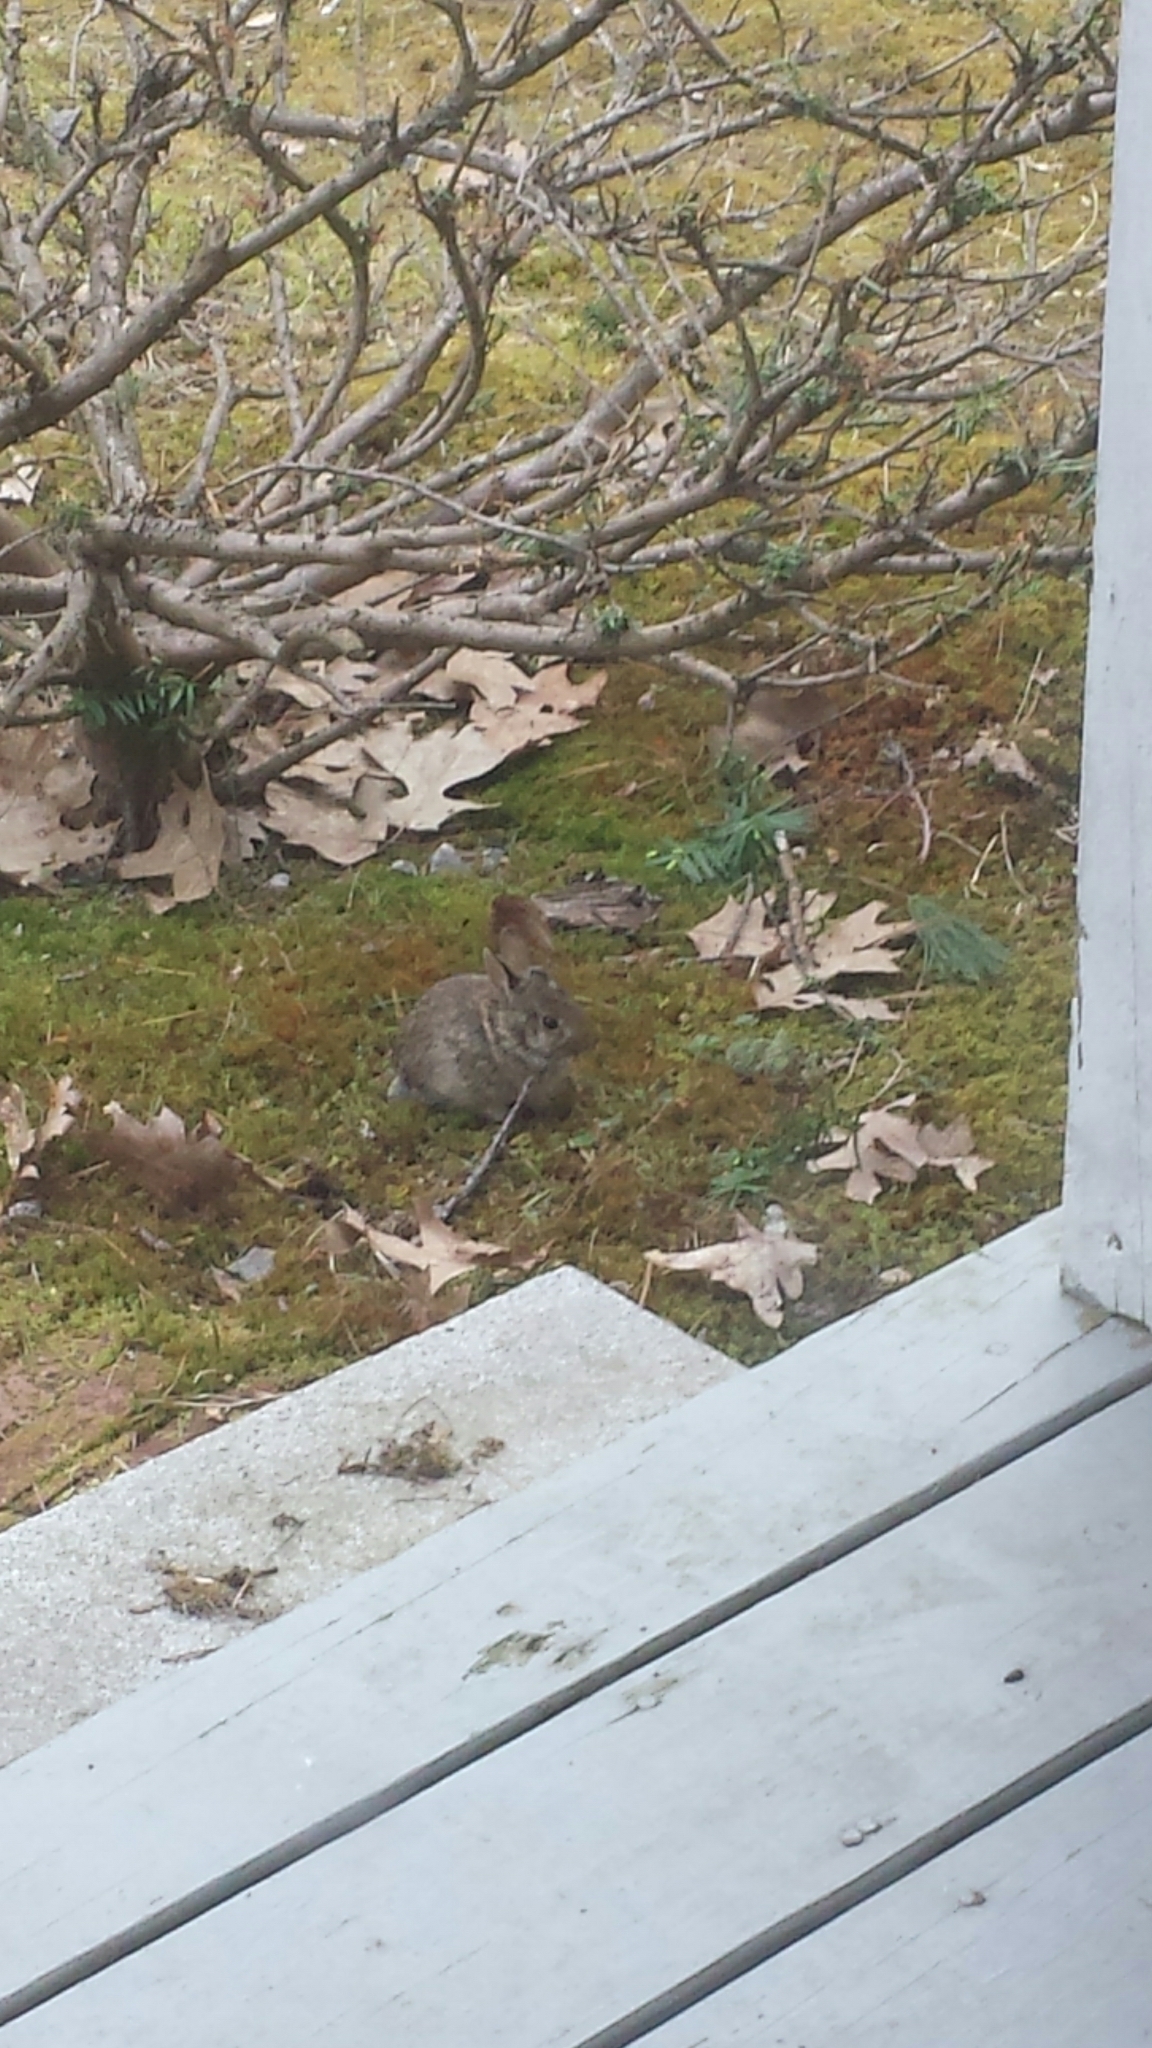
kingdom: Animalia
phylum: Chordata
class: Mammalia
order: Lagomorpha
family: Leporidae
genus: Sylvilagus
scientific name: Sylvilagus floridanus
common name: Eastern cottontail
